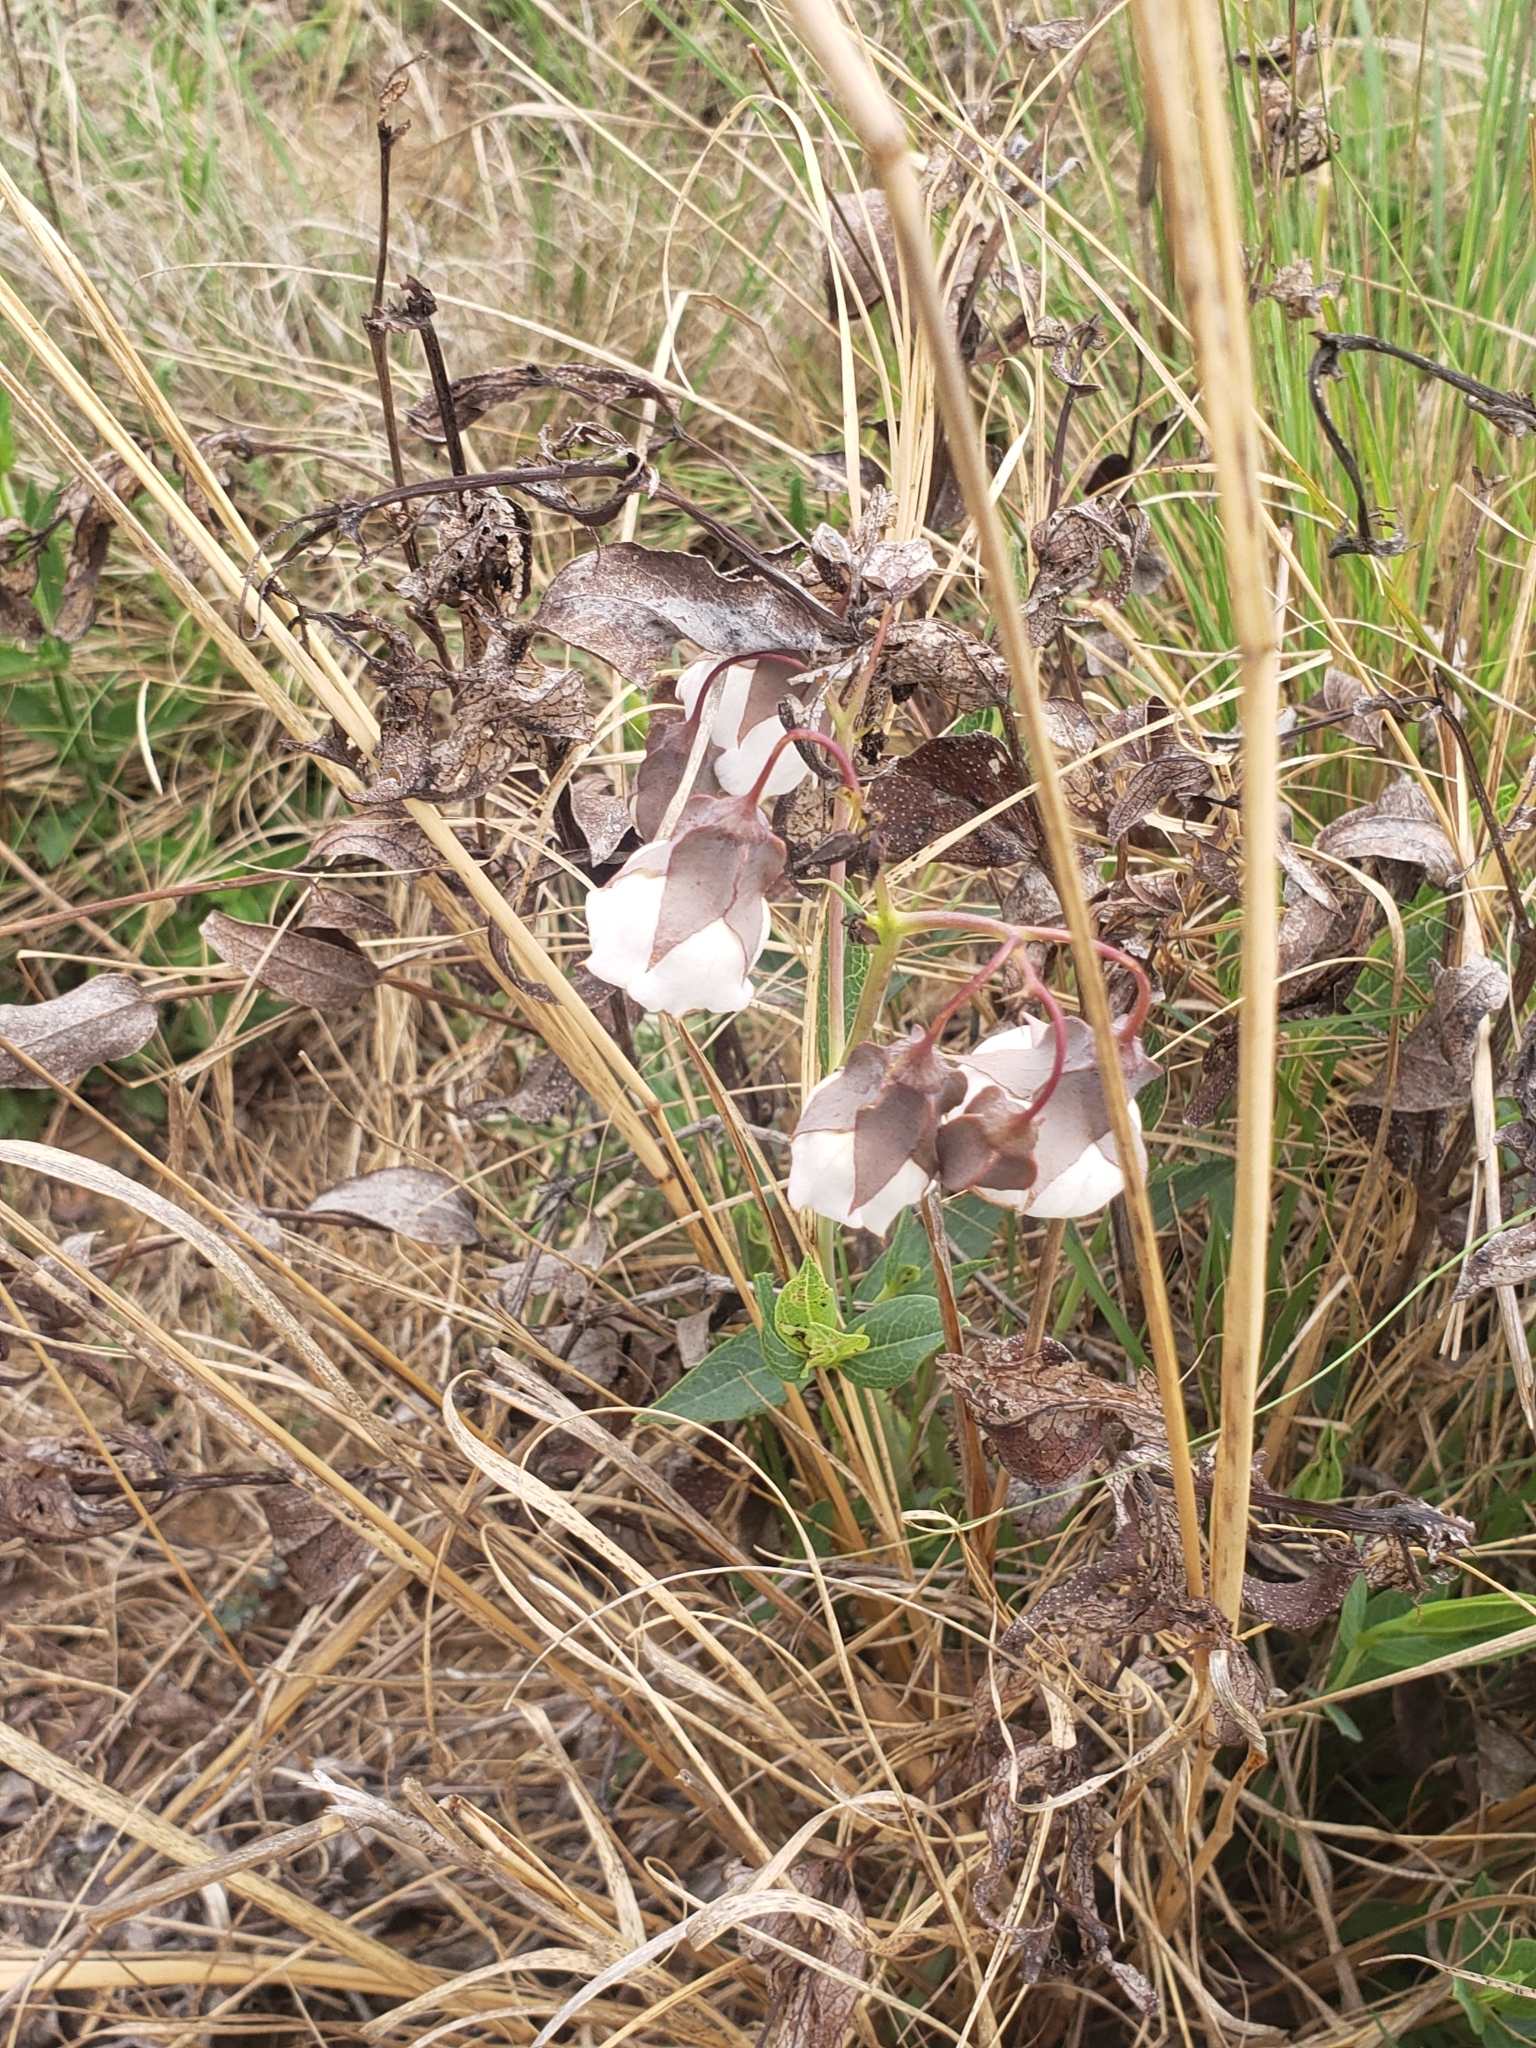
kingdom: Plantae
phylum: Tracheophyta
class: Magnoliopsida
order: Boraginales
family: Boraginaceae
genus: Trichodesma
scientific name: Trichodesma physaloides
